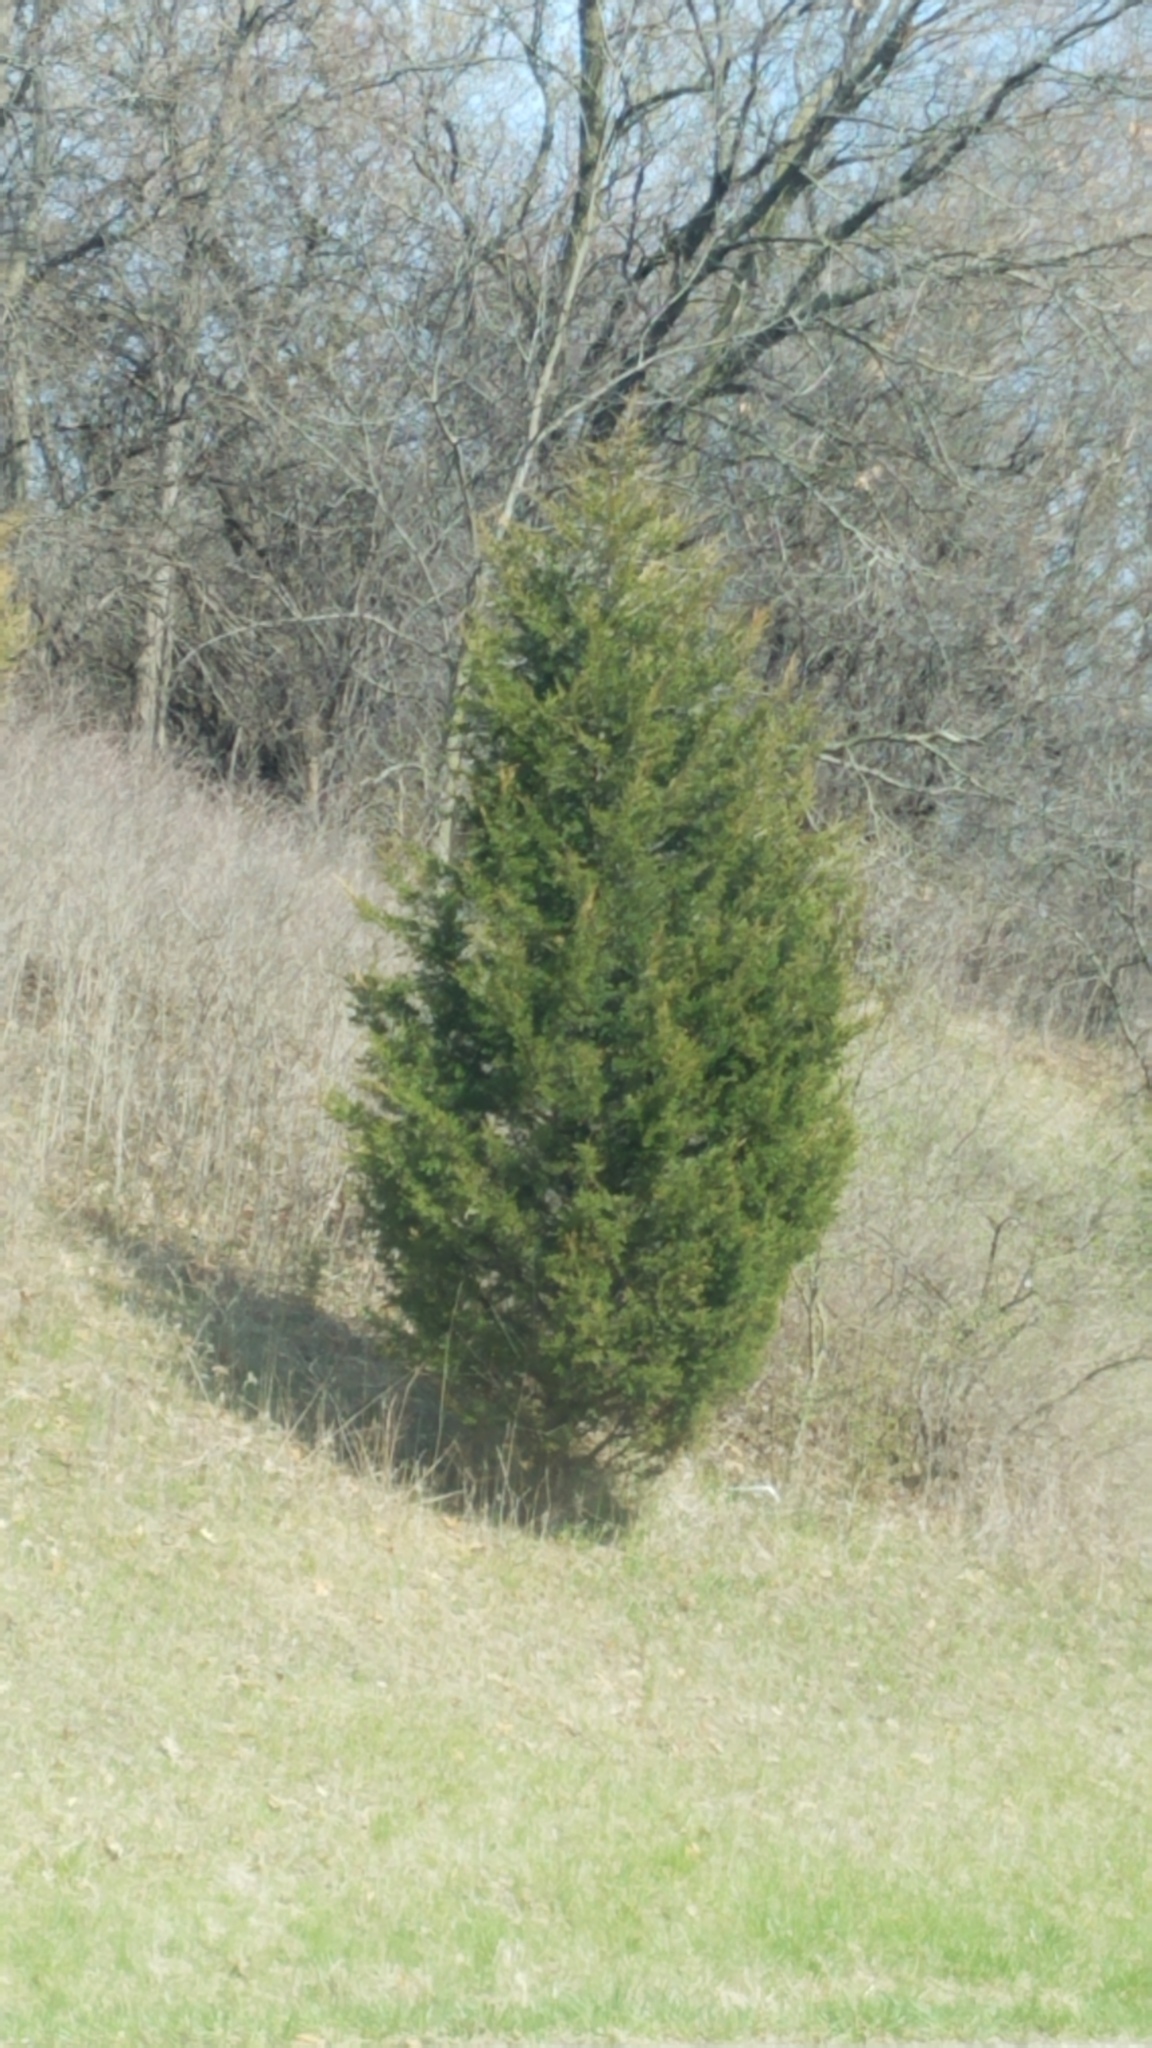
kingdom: Plantae
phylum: Tracheophyta
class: Pinopsida
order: Pinales
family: Cupressaceae
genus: Juniperus
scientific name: Juniperus virginiana
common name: Red juniper
